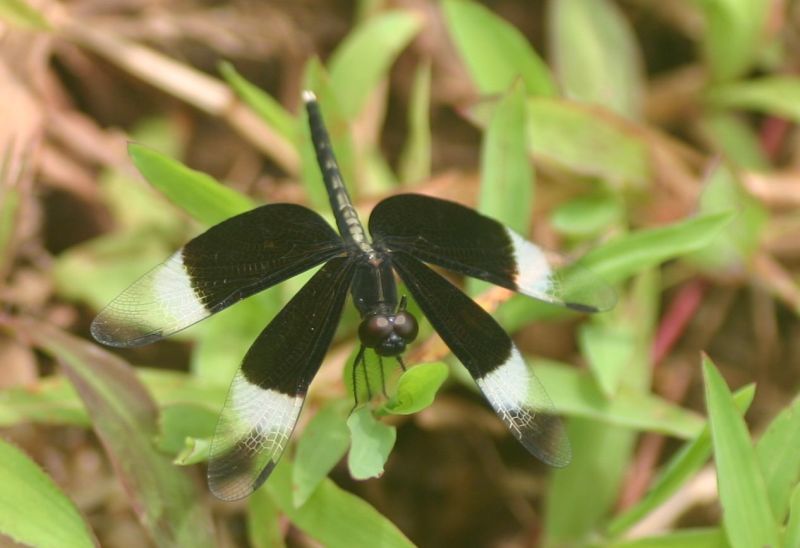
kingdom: Animalia
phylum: Arthropoda
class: Insecta
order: Odonata
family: Libellulidae
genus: Neurothemis
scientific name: Neurothemis tullia
